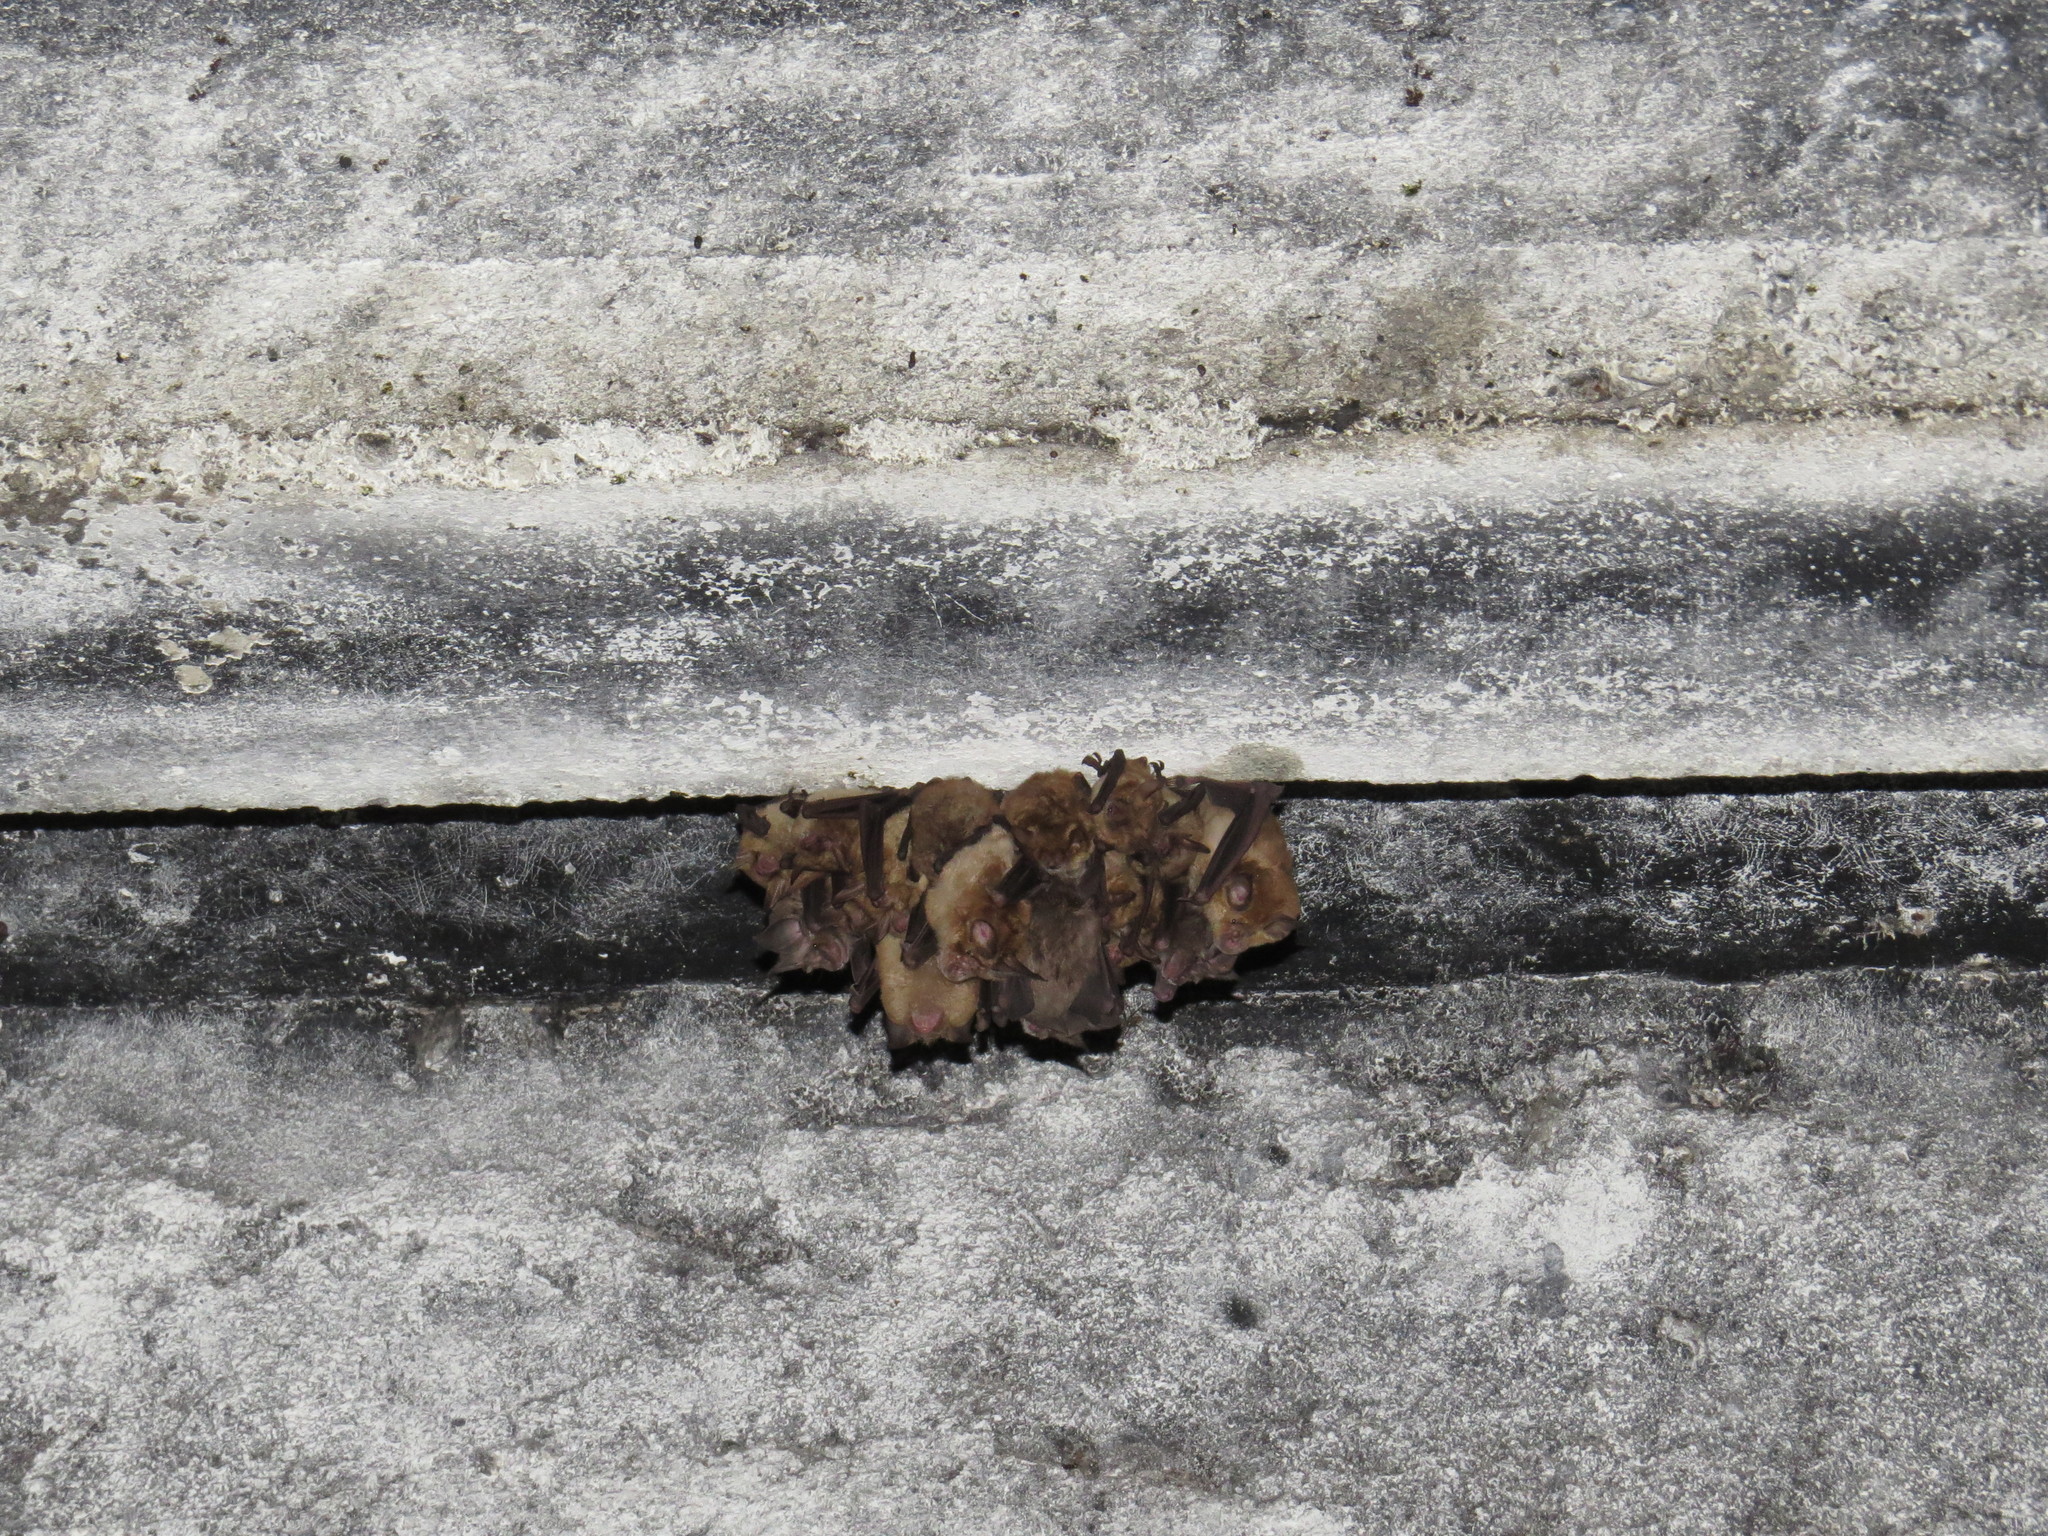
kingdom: Animalia
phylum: Chordata
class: Mammalia
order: Chiroptera
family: Rhinolophidae
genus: Rhinolophus
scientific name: Rhinolophus ferrumequinum
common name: Greater horseshoe bat
